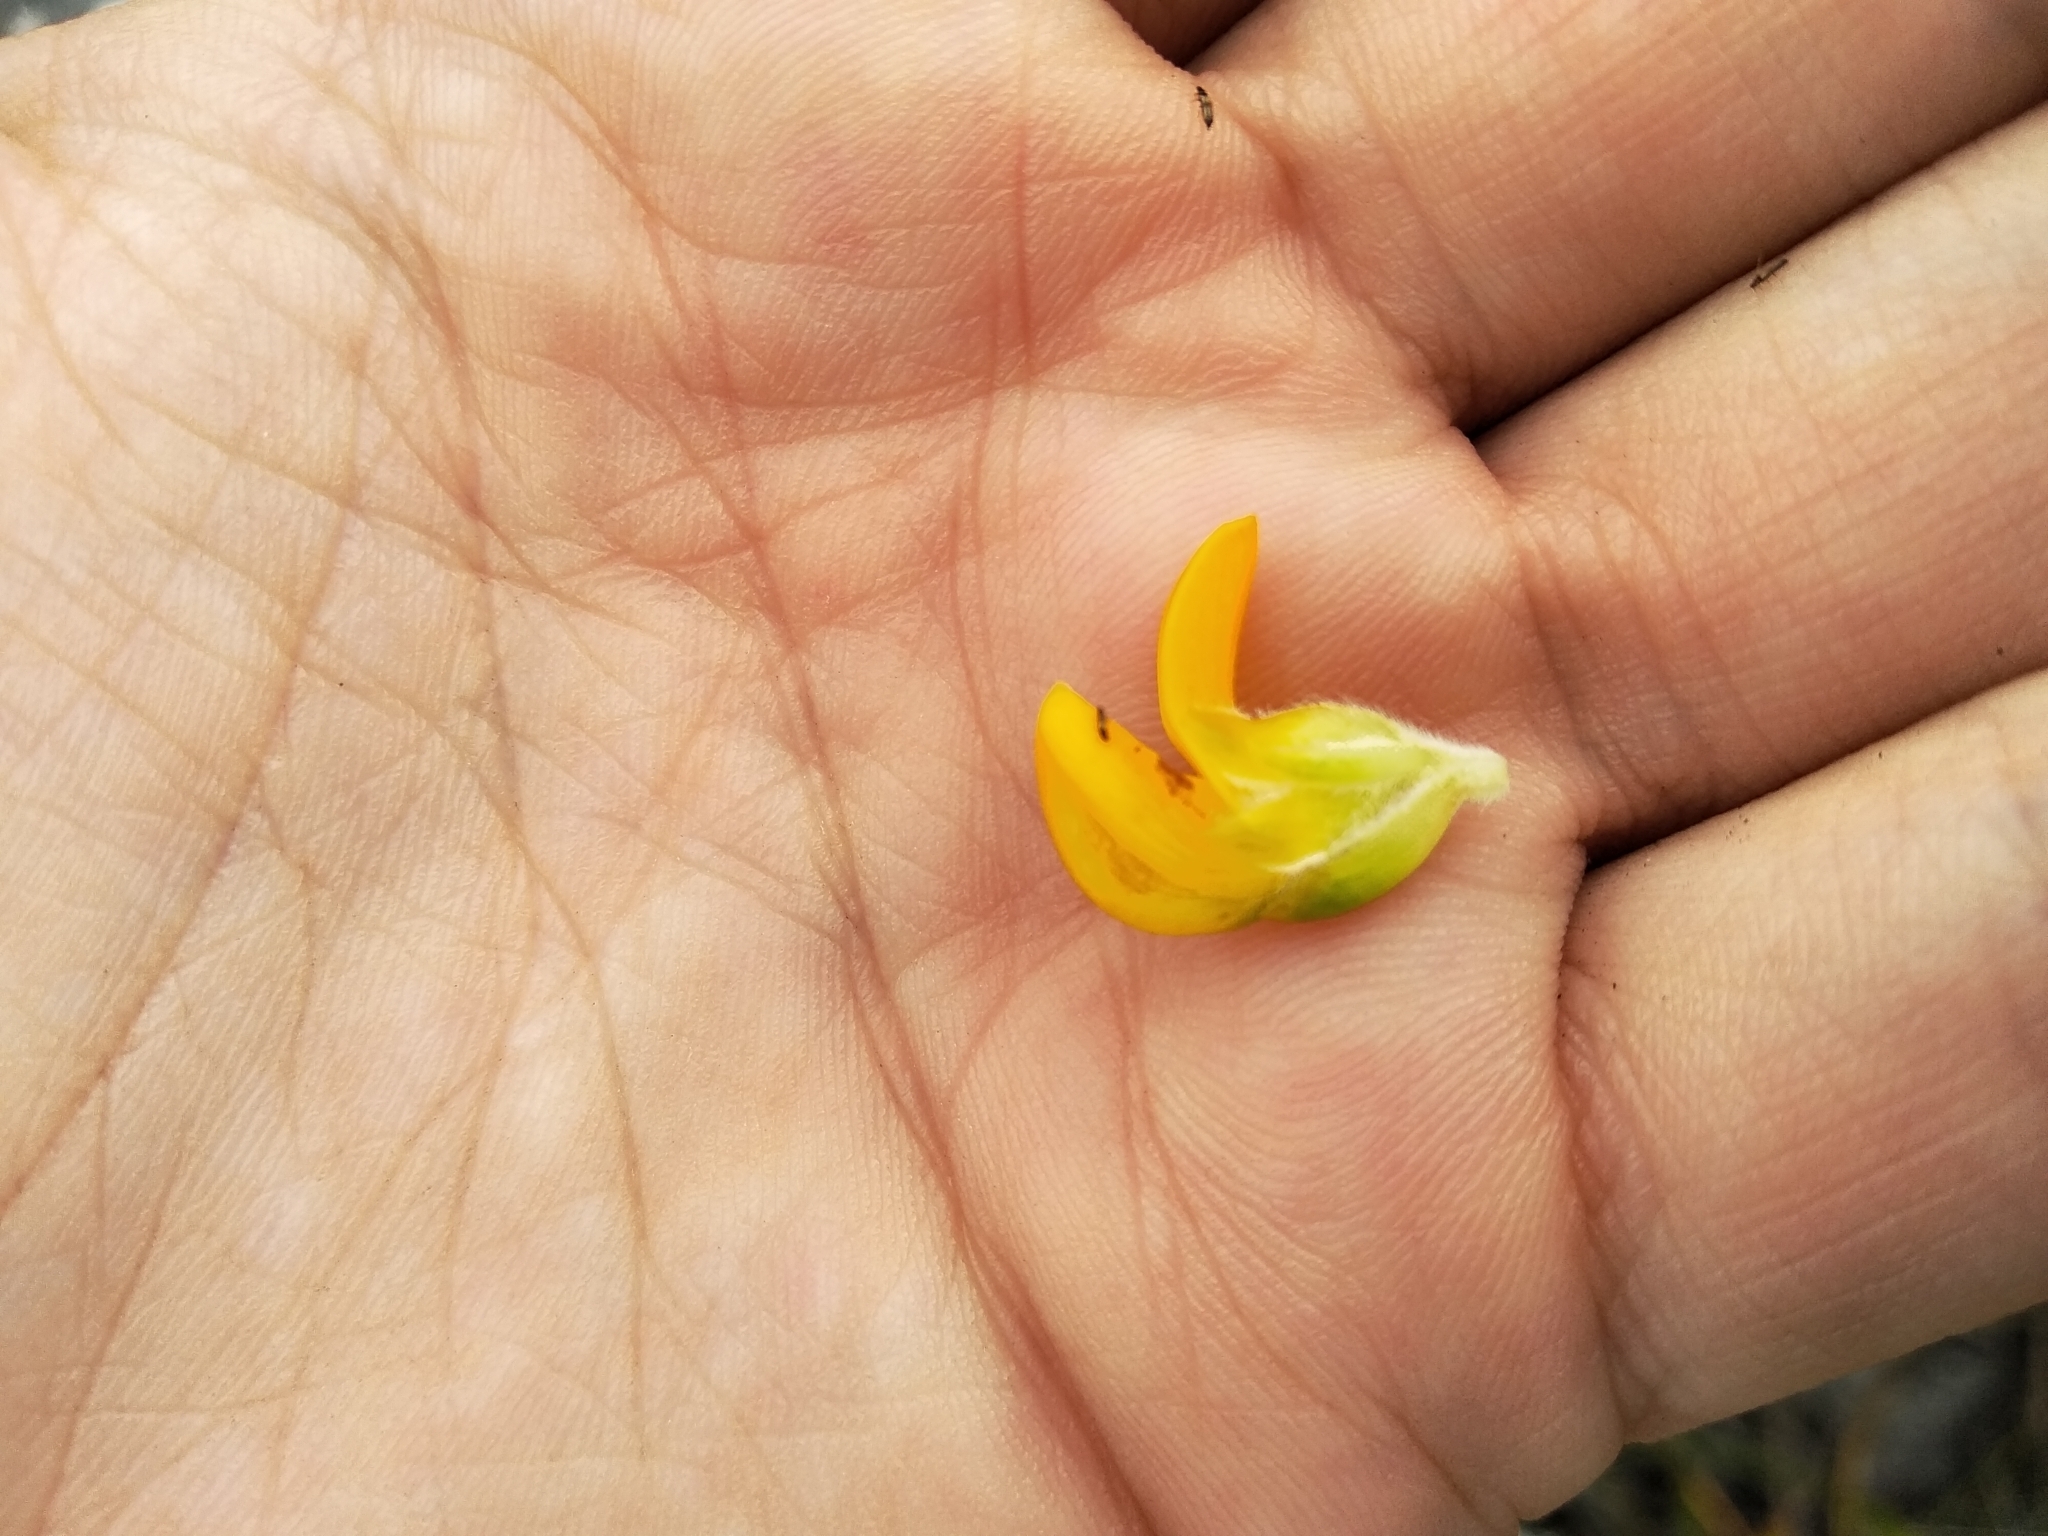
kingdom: Plantae
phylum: Tracheophyta
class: Magnoliopsida
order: Fabales
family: Fabaceae
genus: Aspalathus
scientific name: Aspalathus capitata
